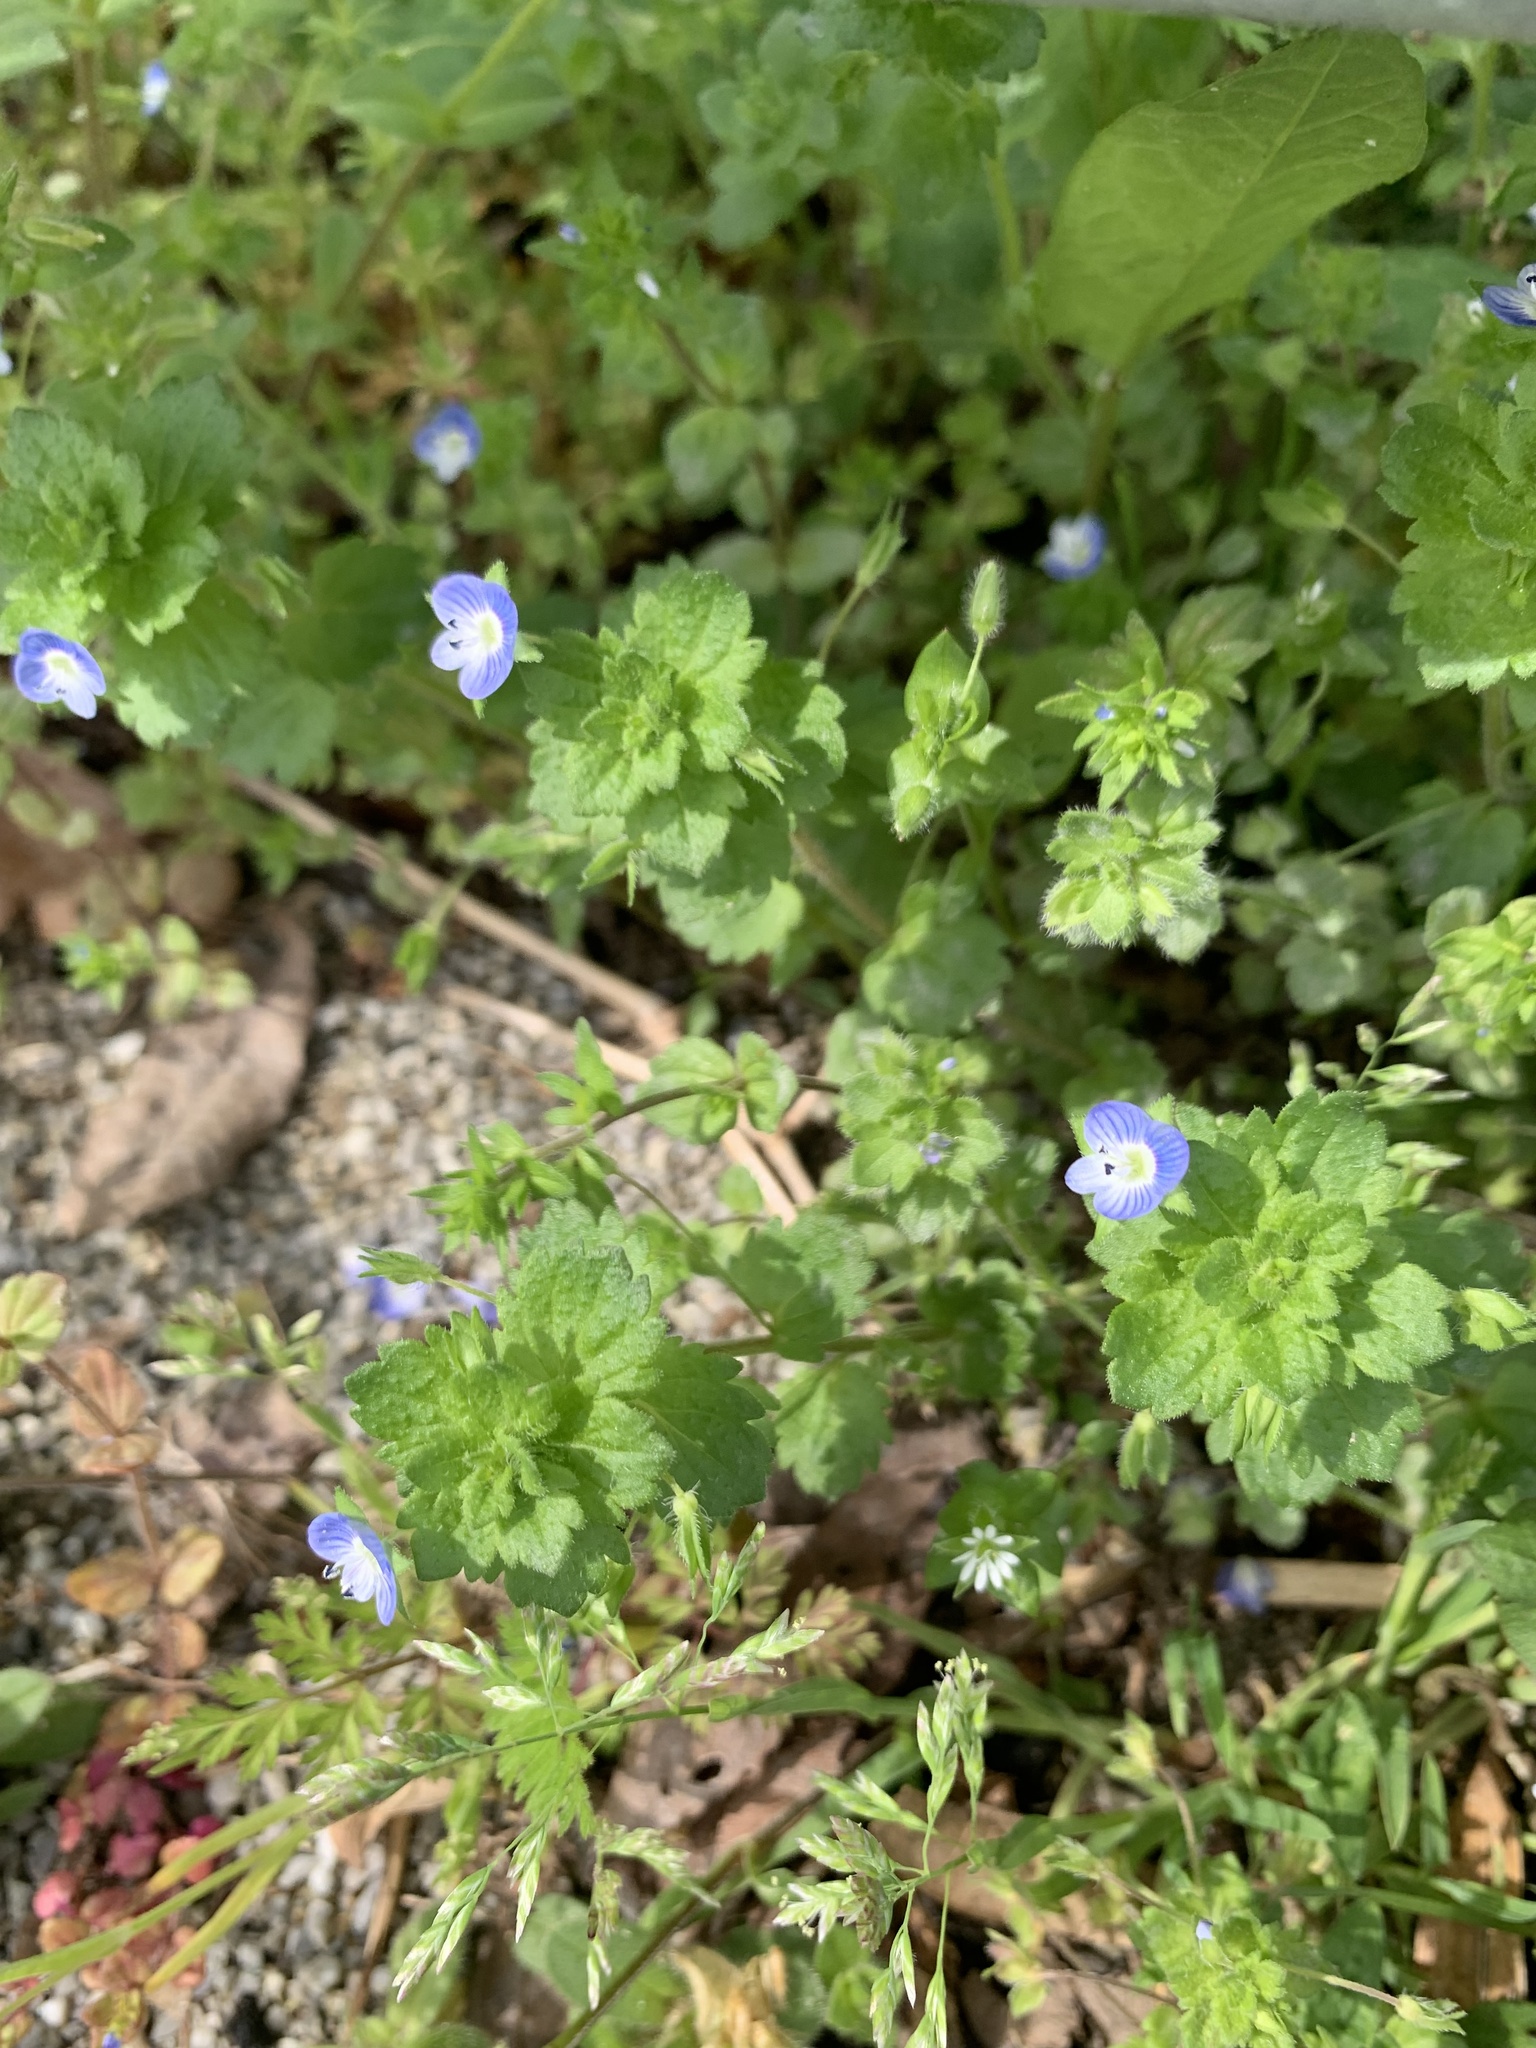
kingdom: Plantae
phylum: Tracheophyta
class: Magnoliopsida
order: Lamiales
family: Plantaginaceae
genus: Veronica
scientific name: Veronica persica
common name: Common field-speedwell
